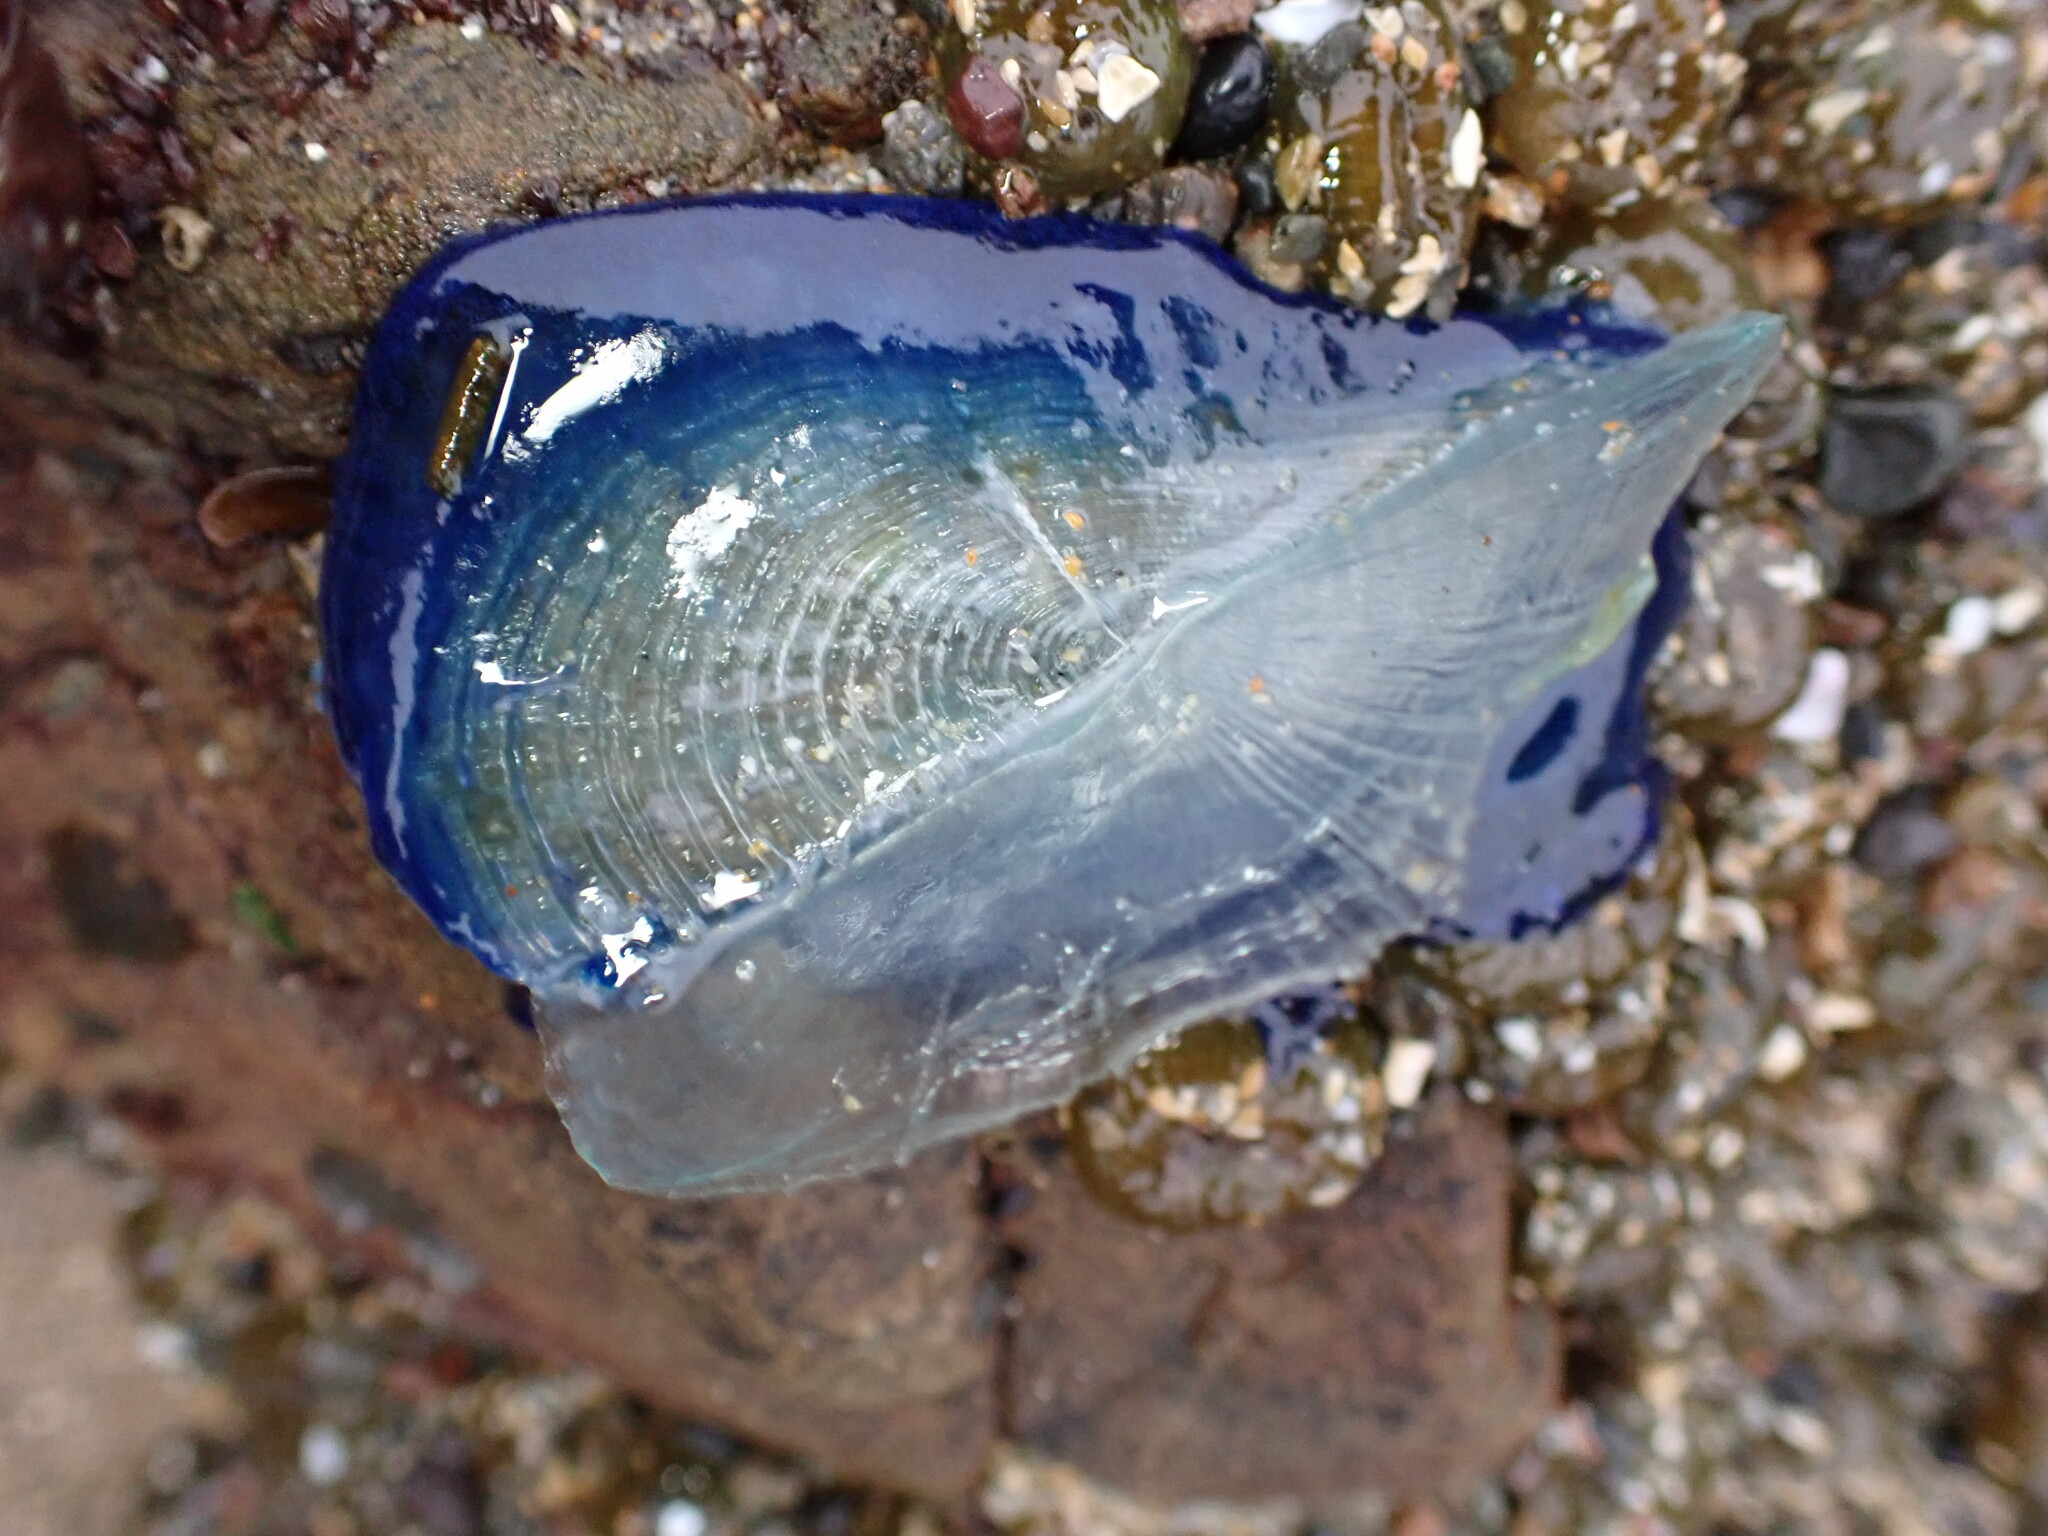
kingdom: Animalia
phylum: Cnidaria
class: Hydrozoa
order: Anthoathecata
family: Porpitidae
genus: Velella
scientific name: Velella velella
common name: By-the-wind-sailor
